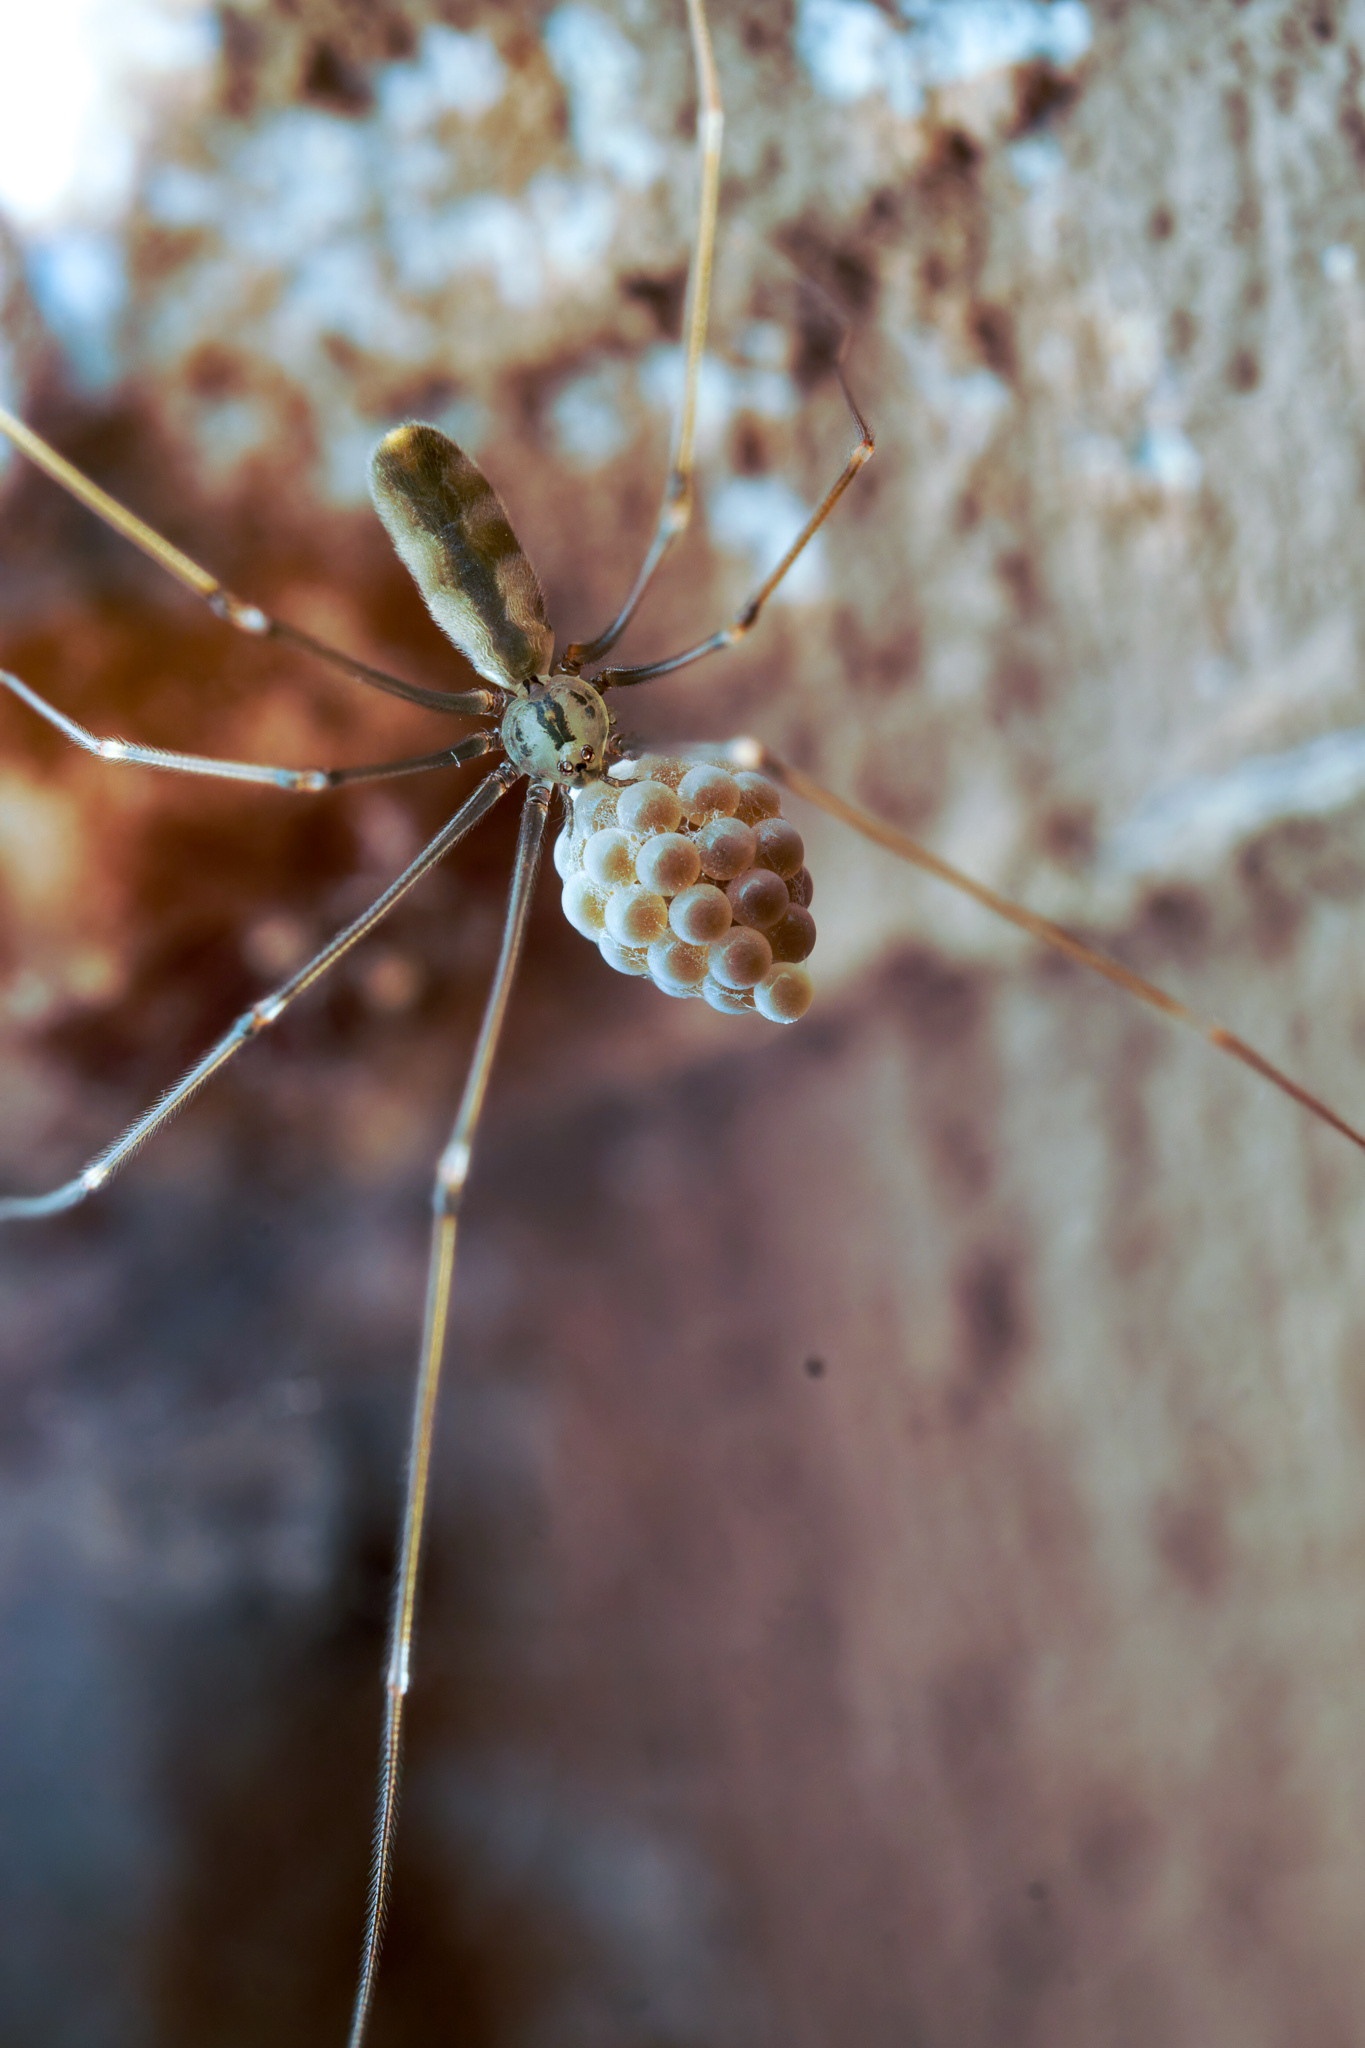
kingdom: Animalia
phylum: Arthropoda
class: Arachnida
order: Araneae
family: Pholcidae
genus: Pholcus
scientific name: Pholcus opilionoides
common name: Daddylongleg spider
